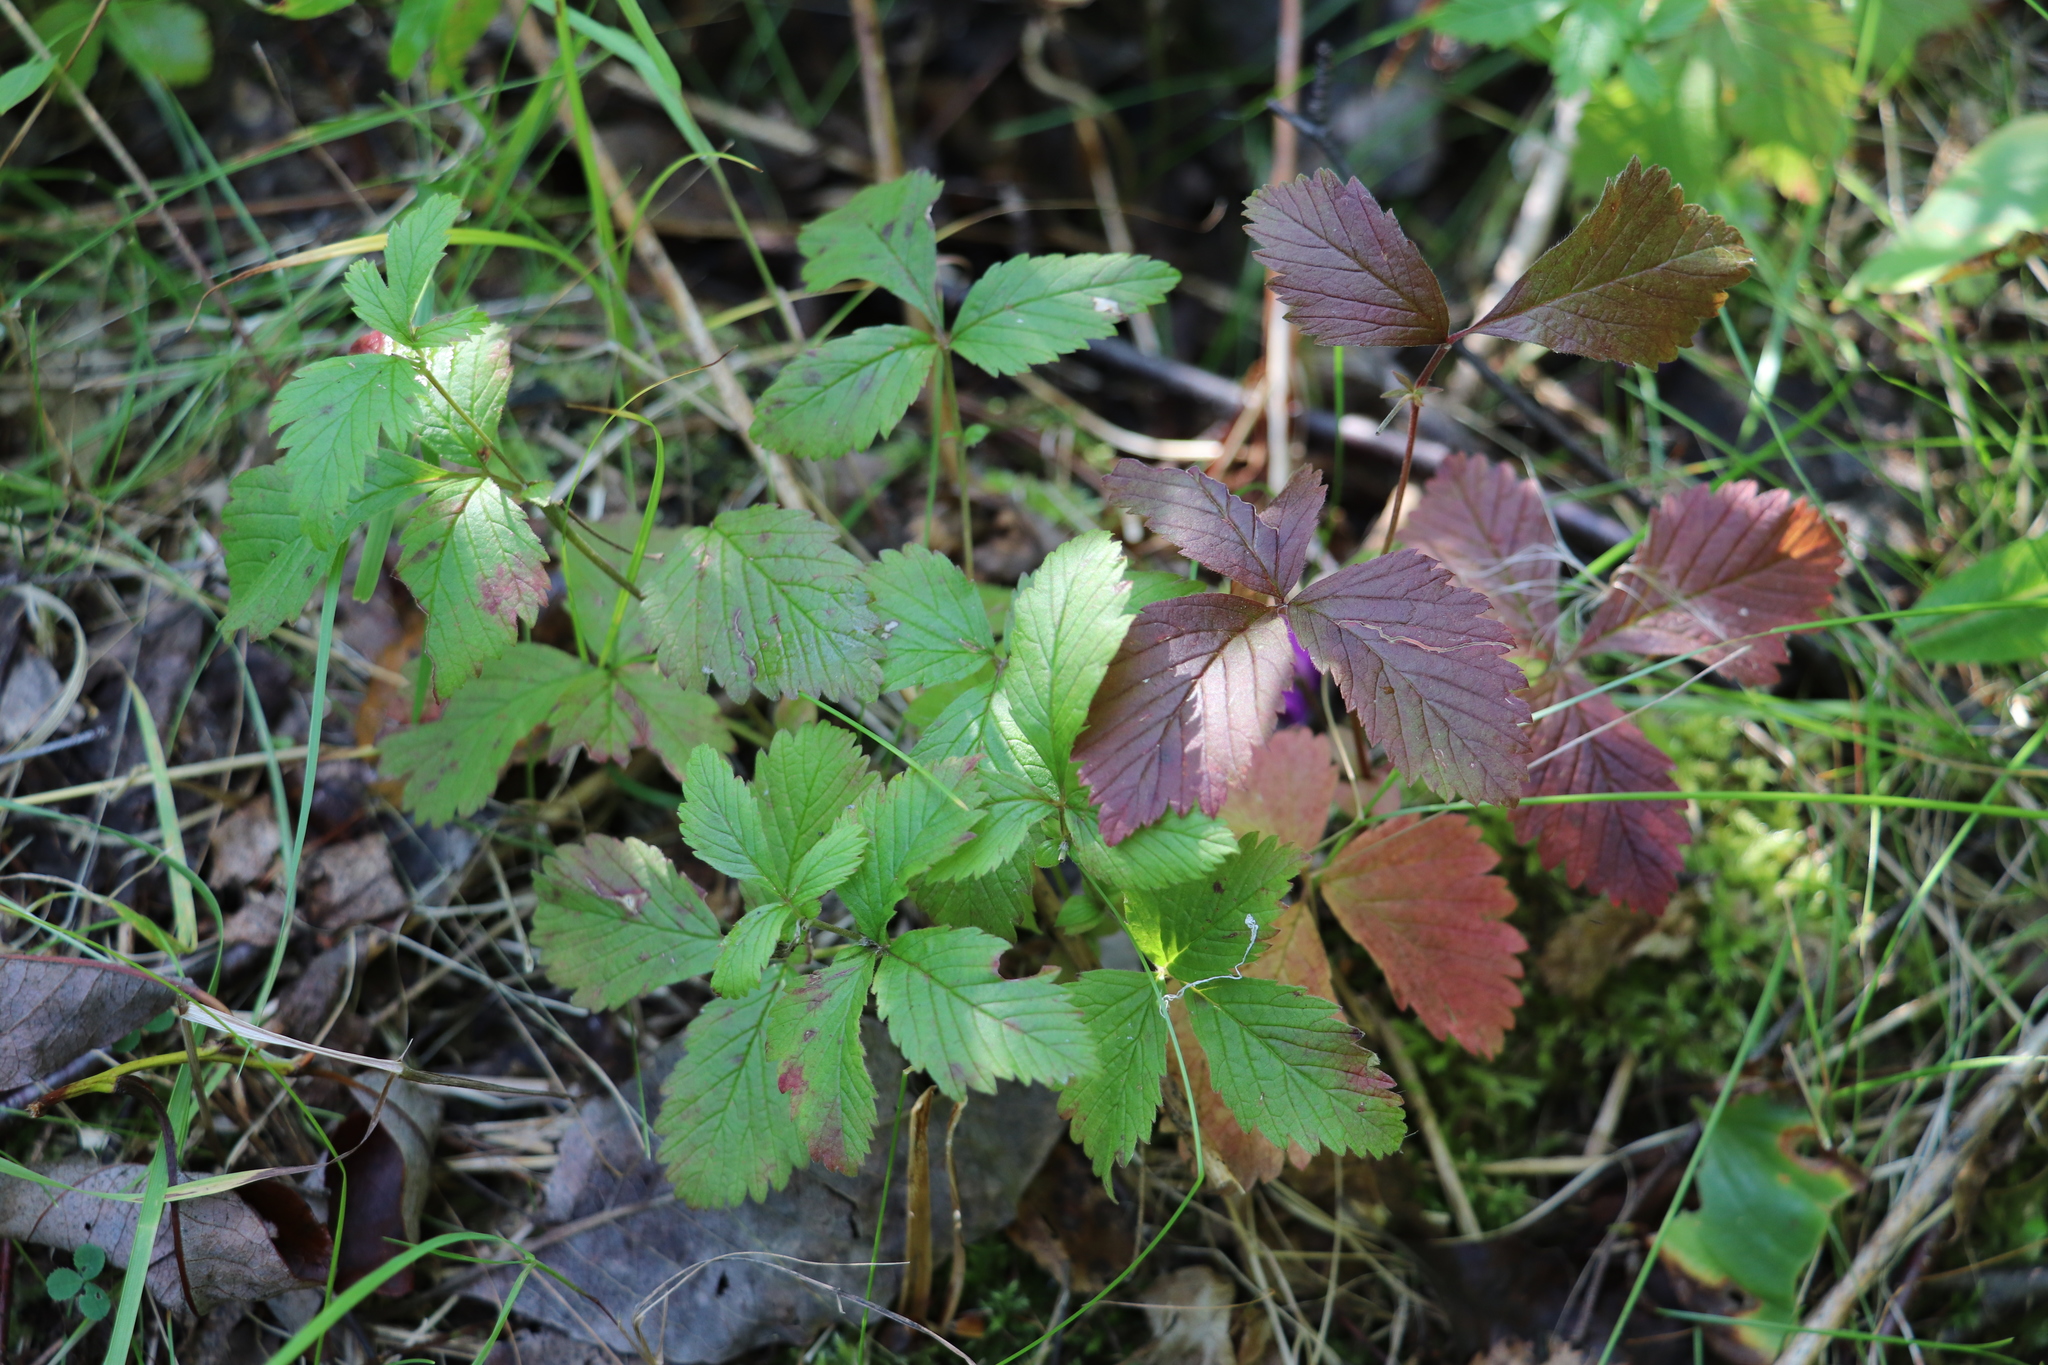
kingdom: Plantae
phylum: Tracheophyta
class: Magnoliopsida
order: Rosales
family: Rosaceae
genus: Rubus
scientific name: Rubus arcticus
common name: Arctic bramble
